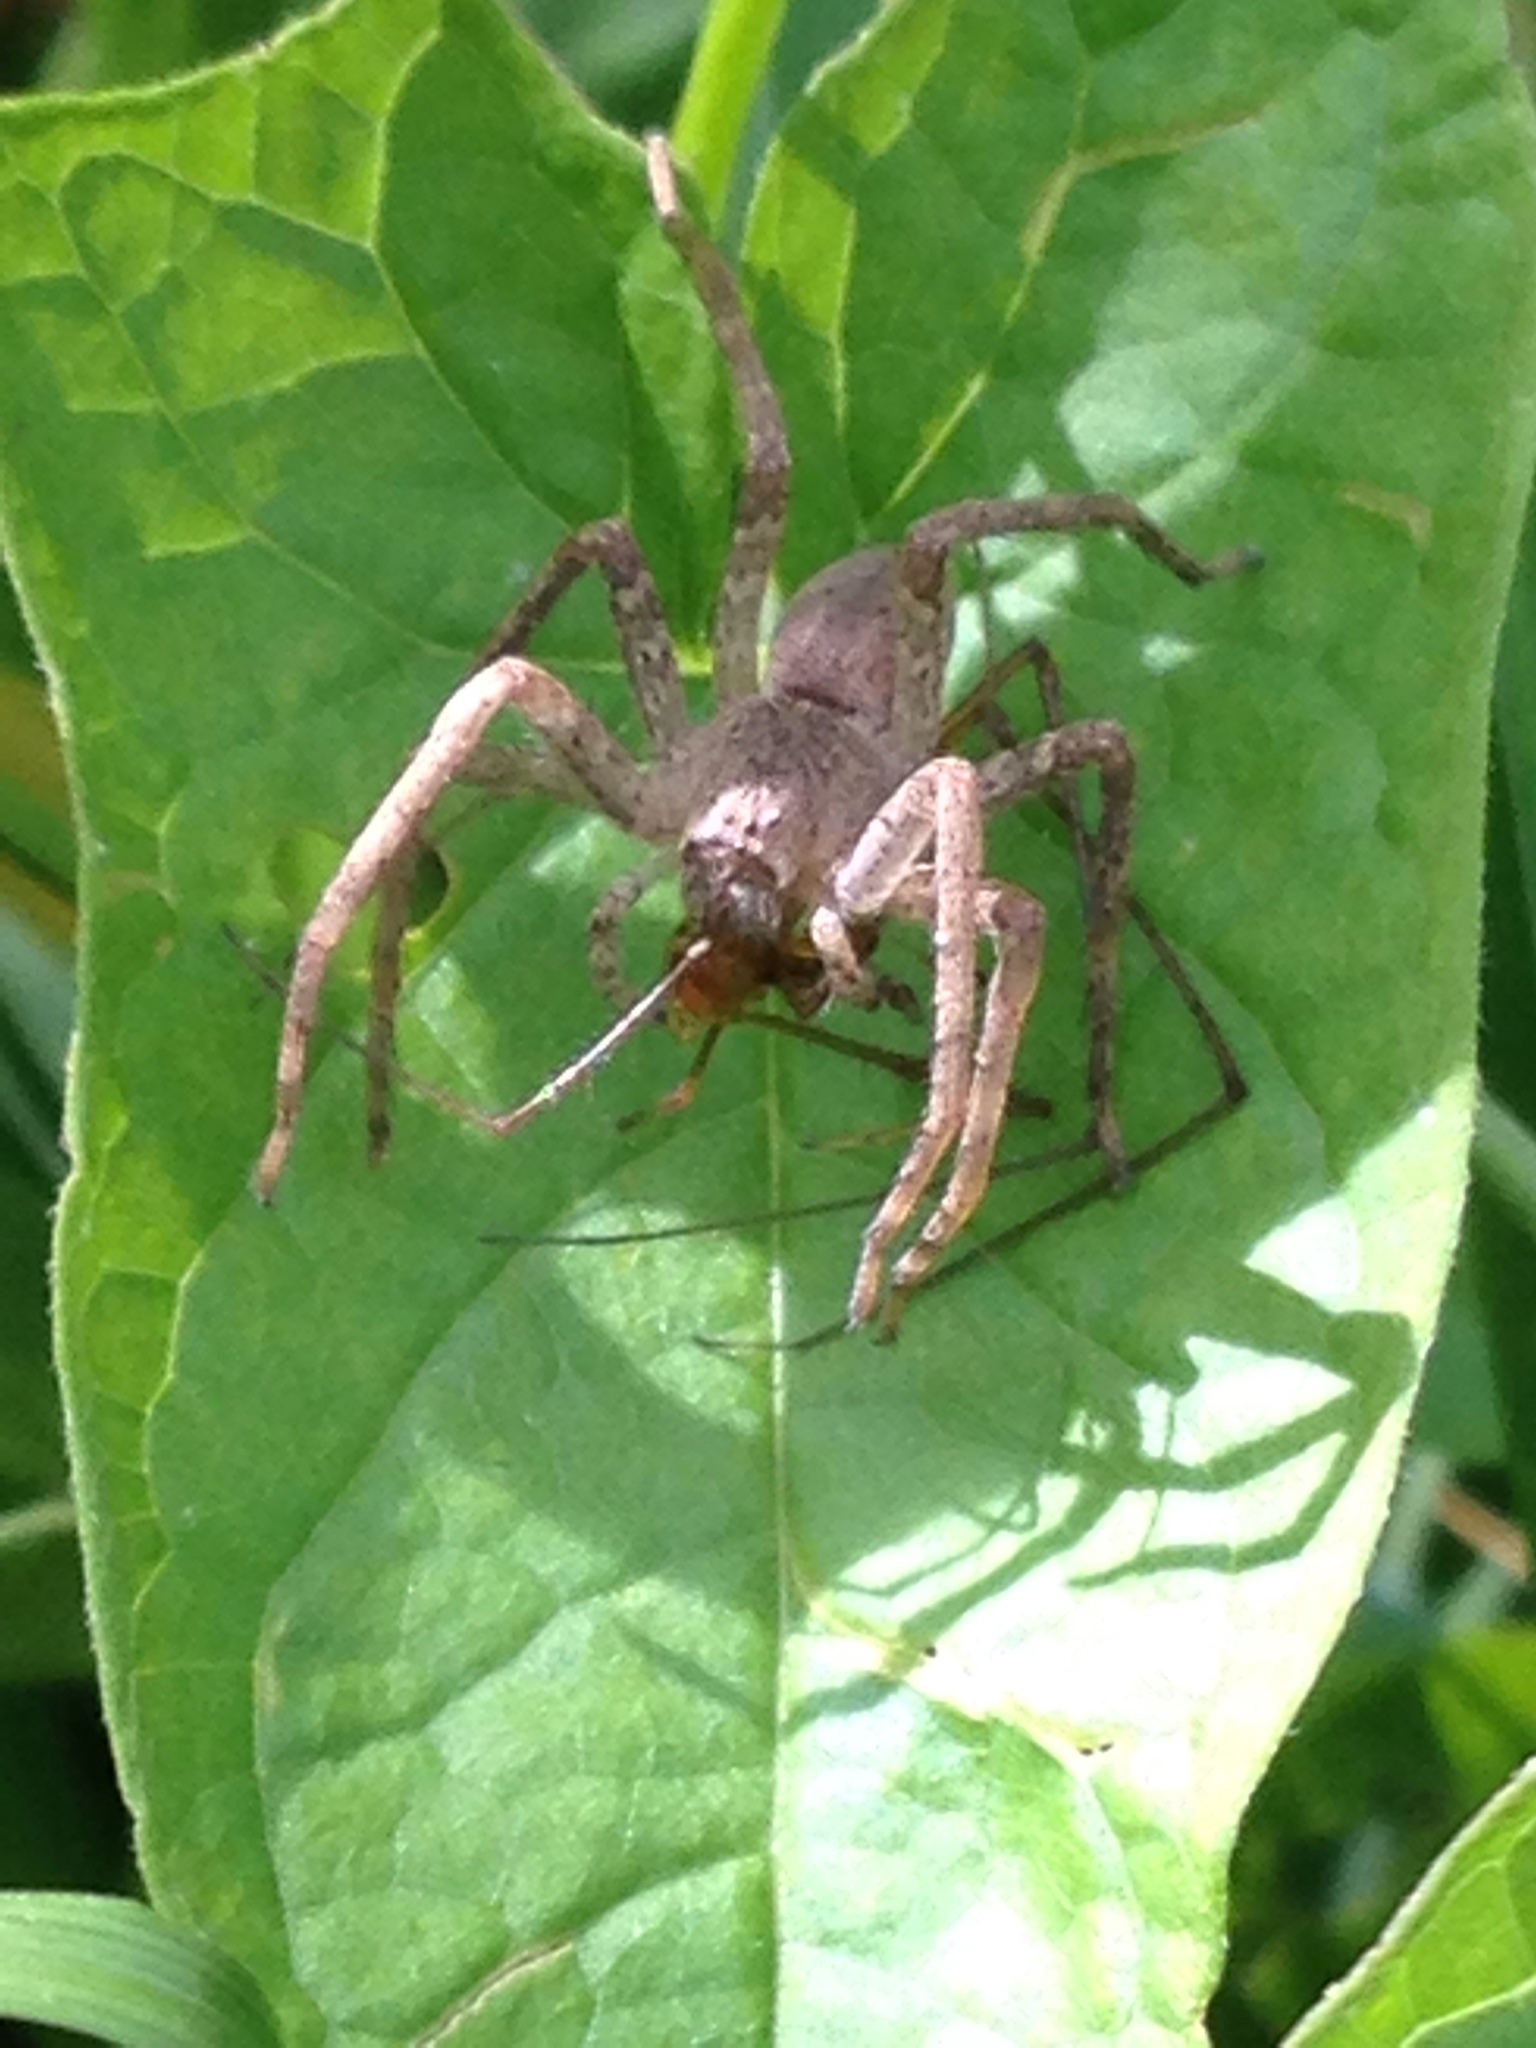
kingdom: Animalia
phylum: Arthropoda
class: Arachnida
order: Araneae
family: Pisauridae
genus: Pisaurina
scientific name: Pisaurina mira
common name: American nursery web spider
